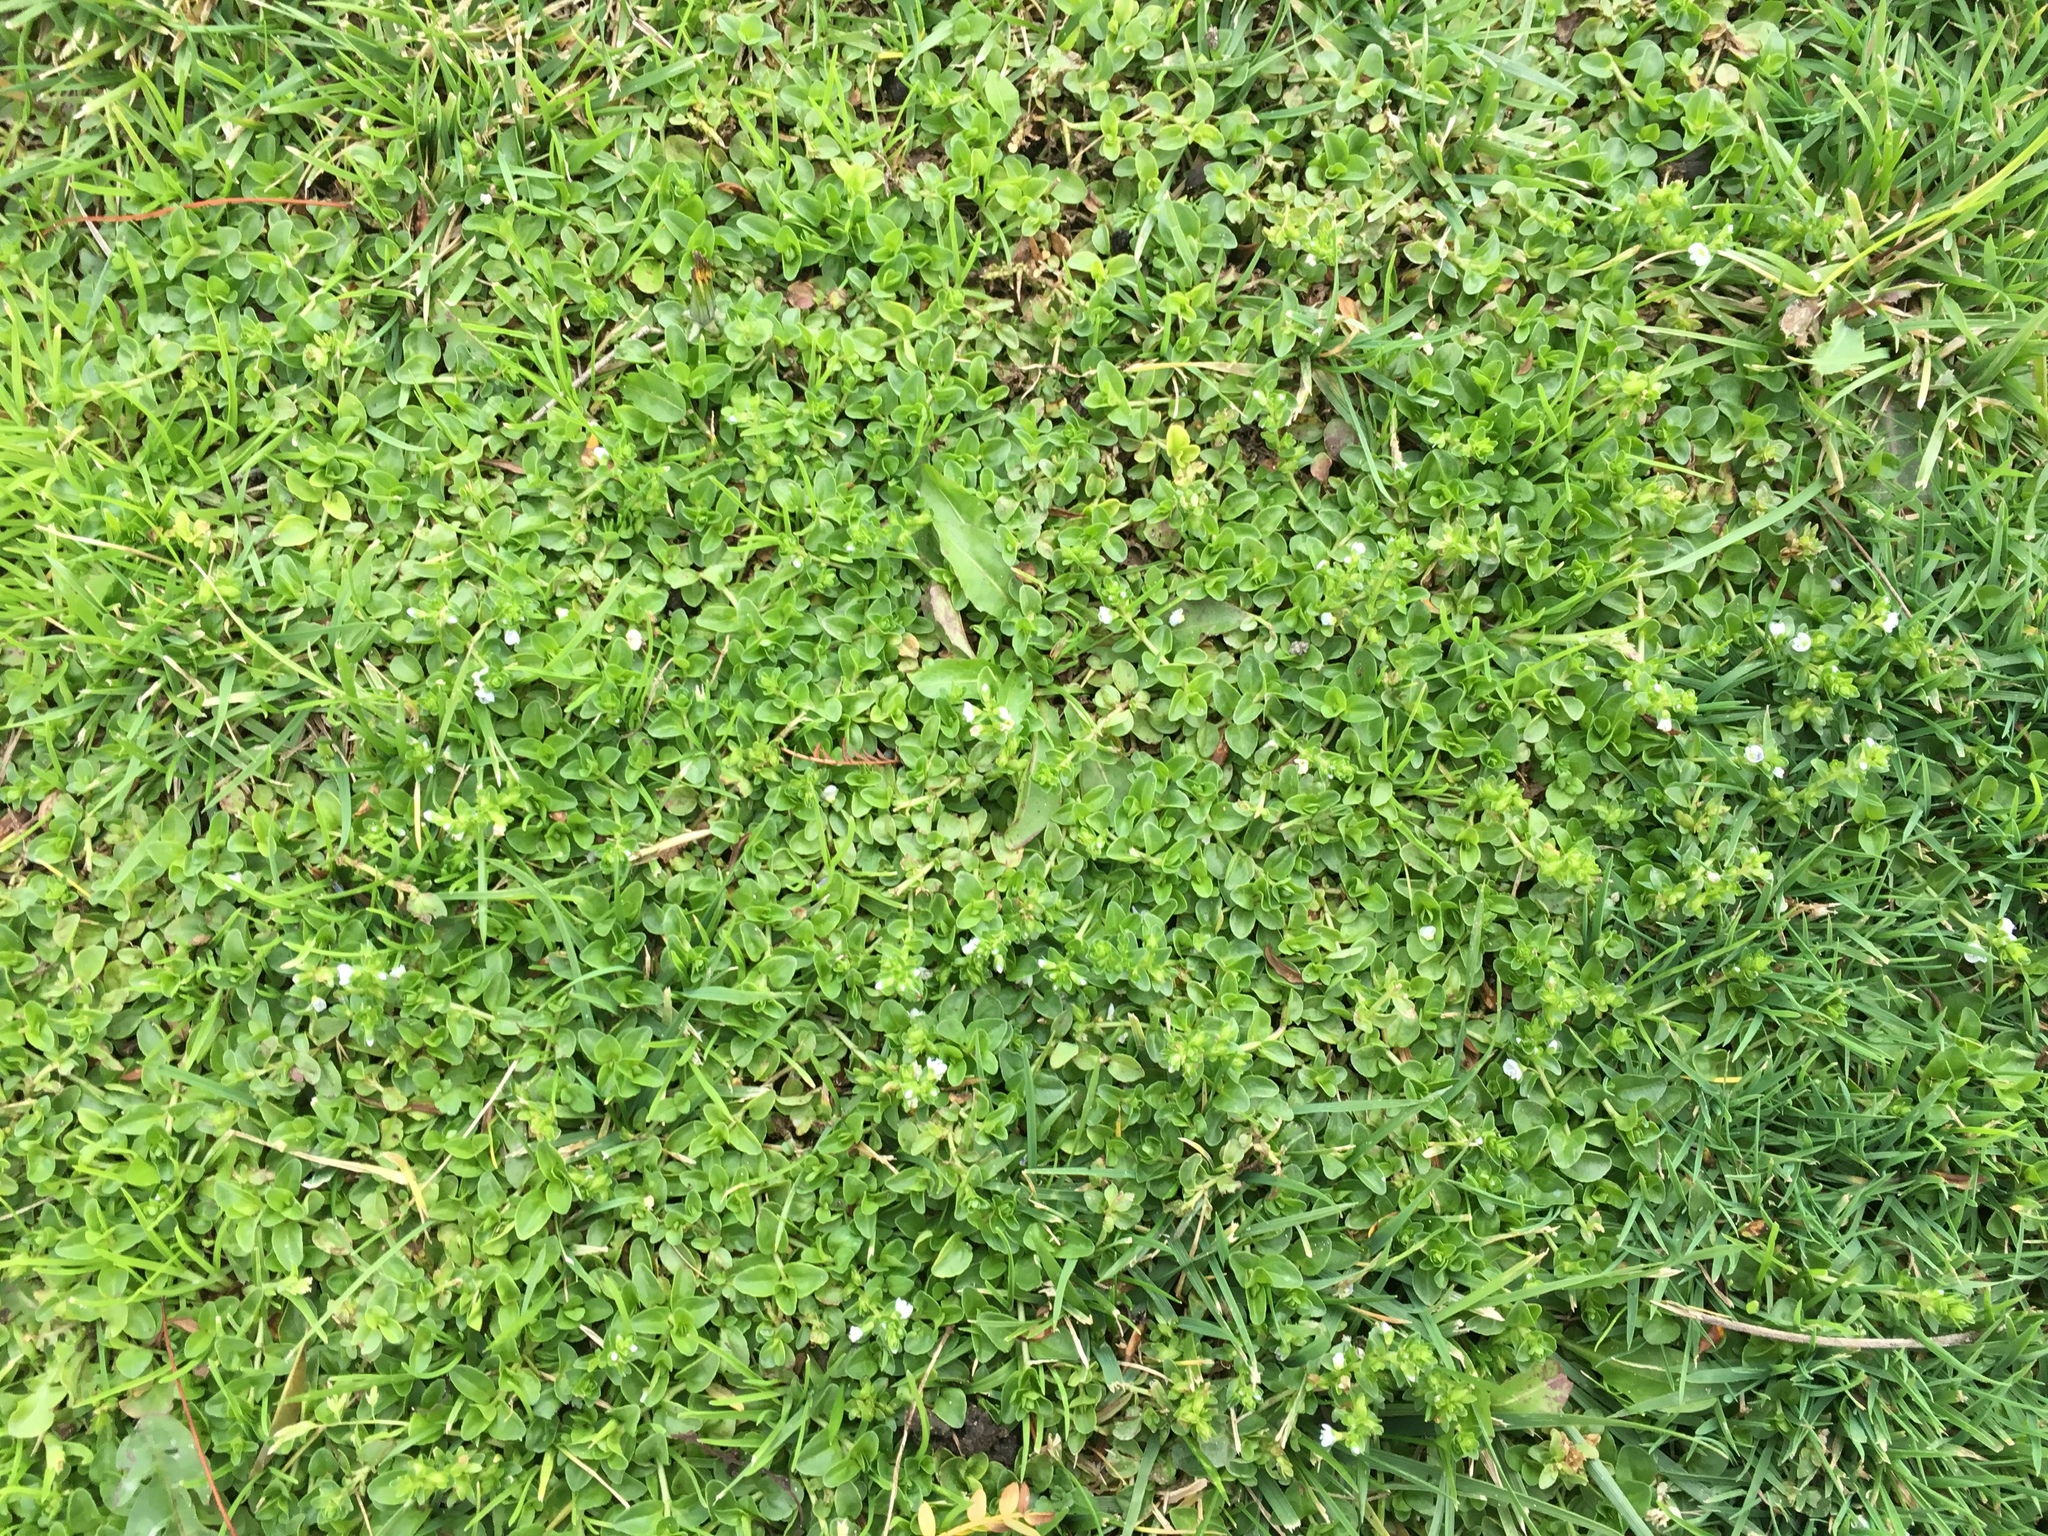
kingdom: Plantae
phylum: Tracheophyta
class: Magnoliopsida
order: Lamiales
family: Plantaginaceae
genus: Veronica
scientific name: Veronica serpyllifolia
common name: Thyme-leaved speedwell
